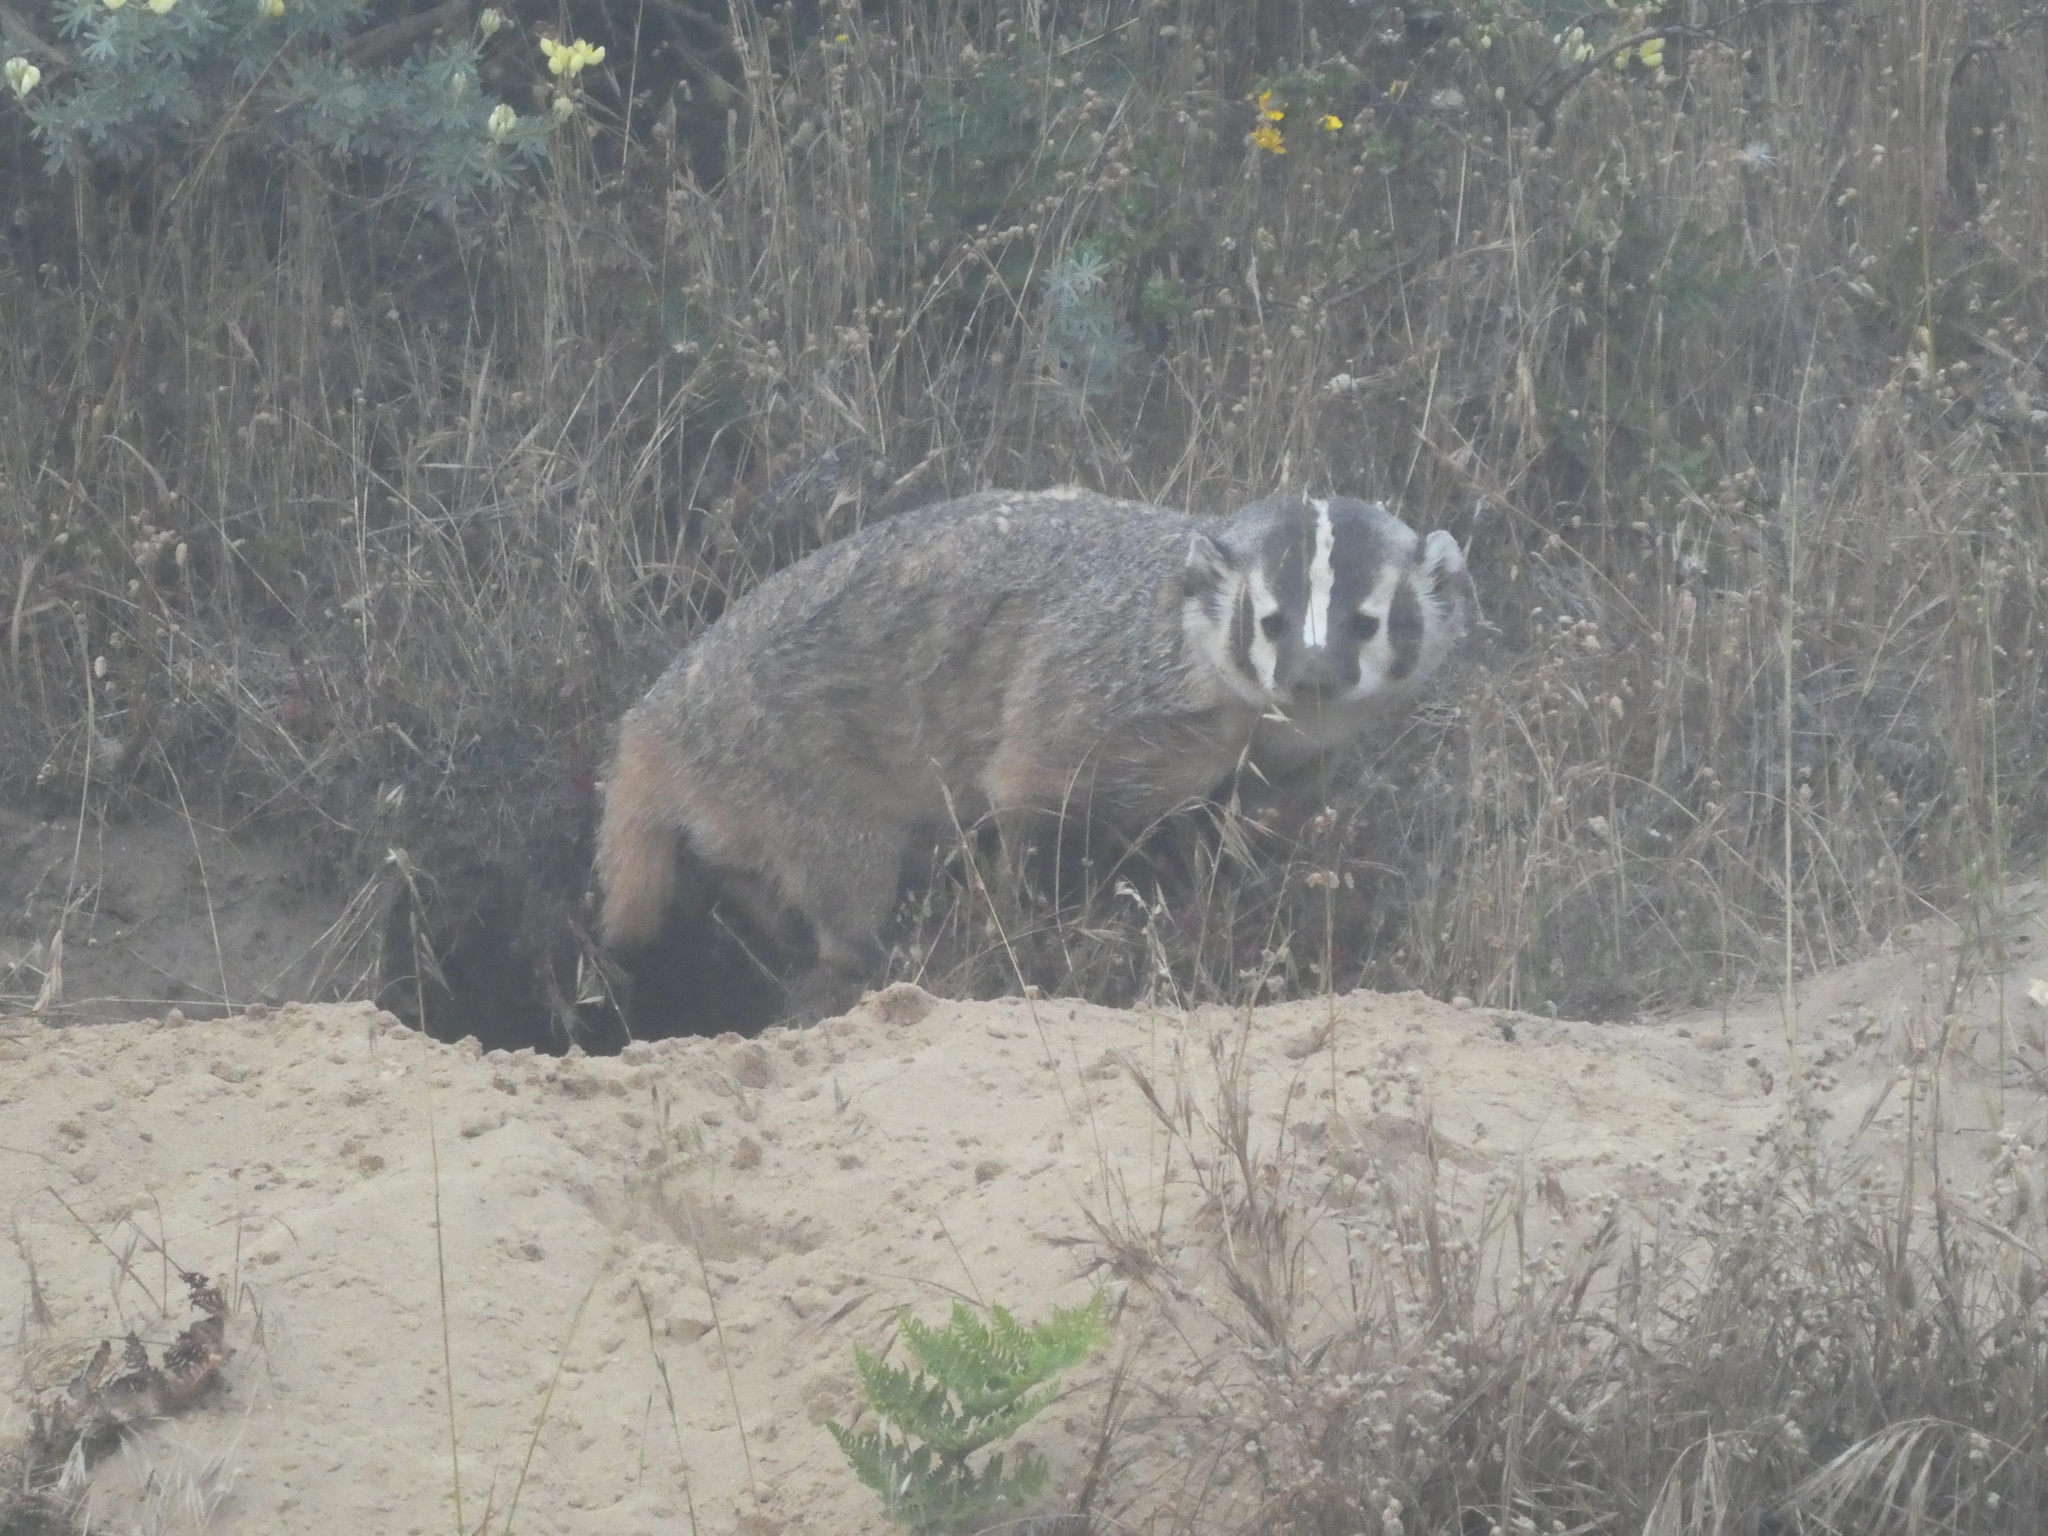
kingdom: Animalia
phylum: Chordata
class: Mammalia
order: Carnivora
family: Mustelidae
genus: Taxidea
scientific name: Taxidea taxus
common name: American badger
